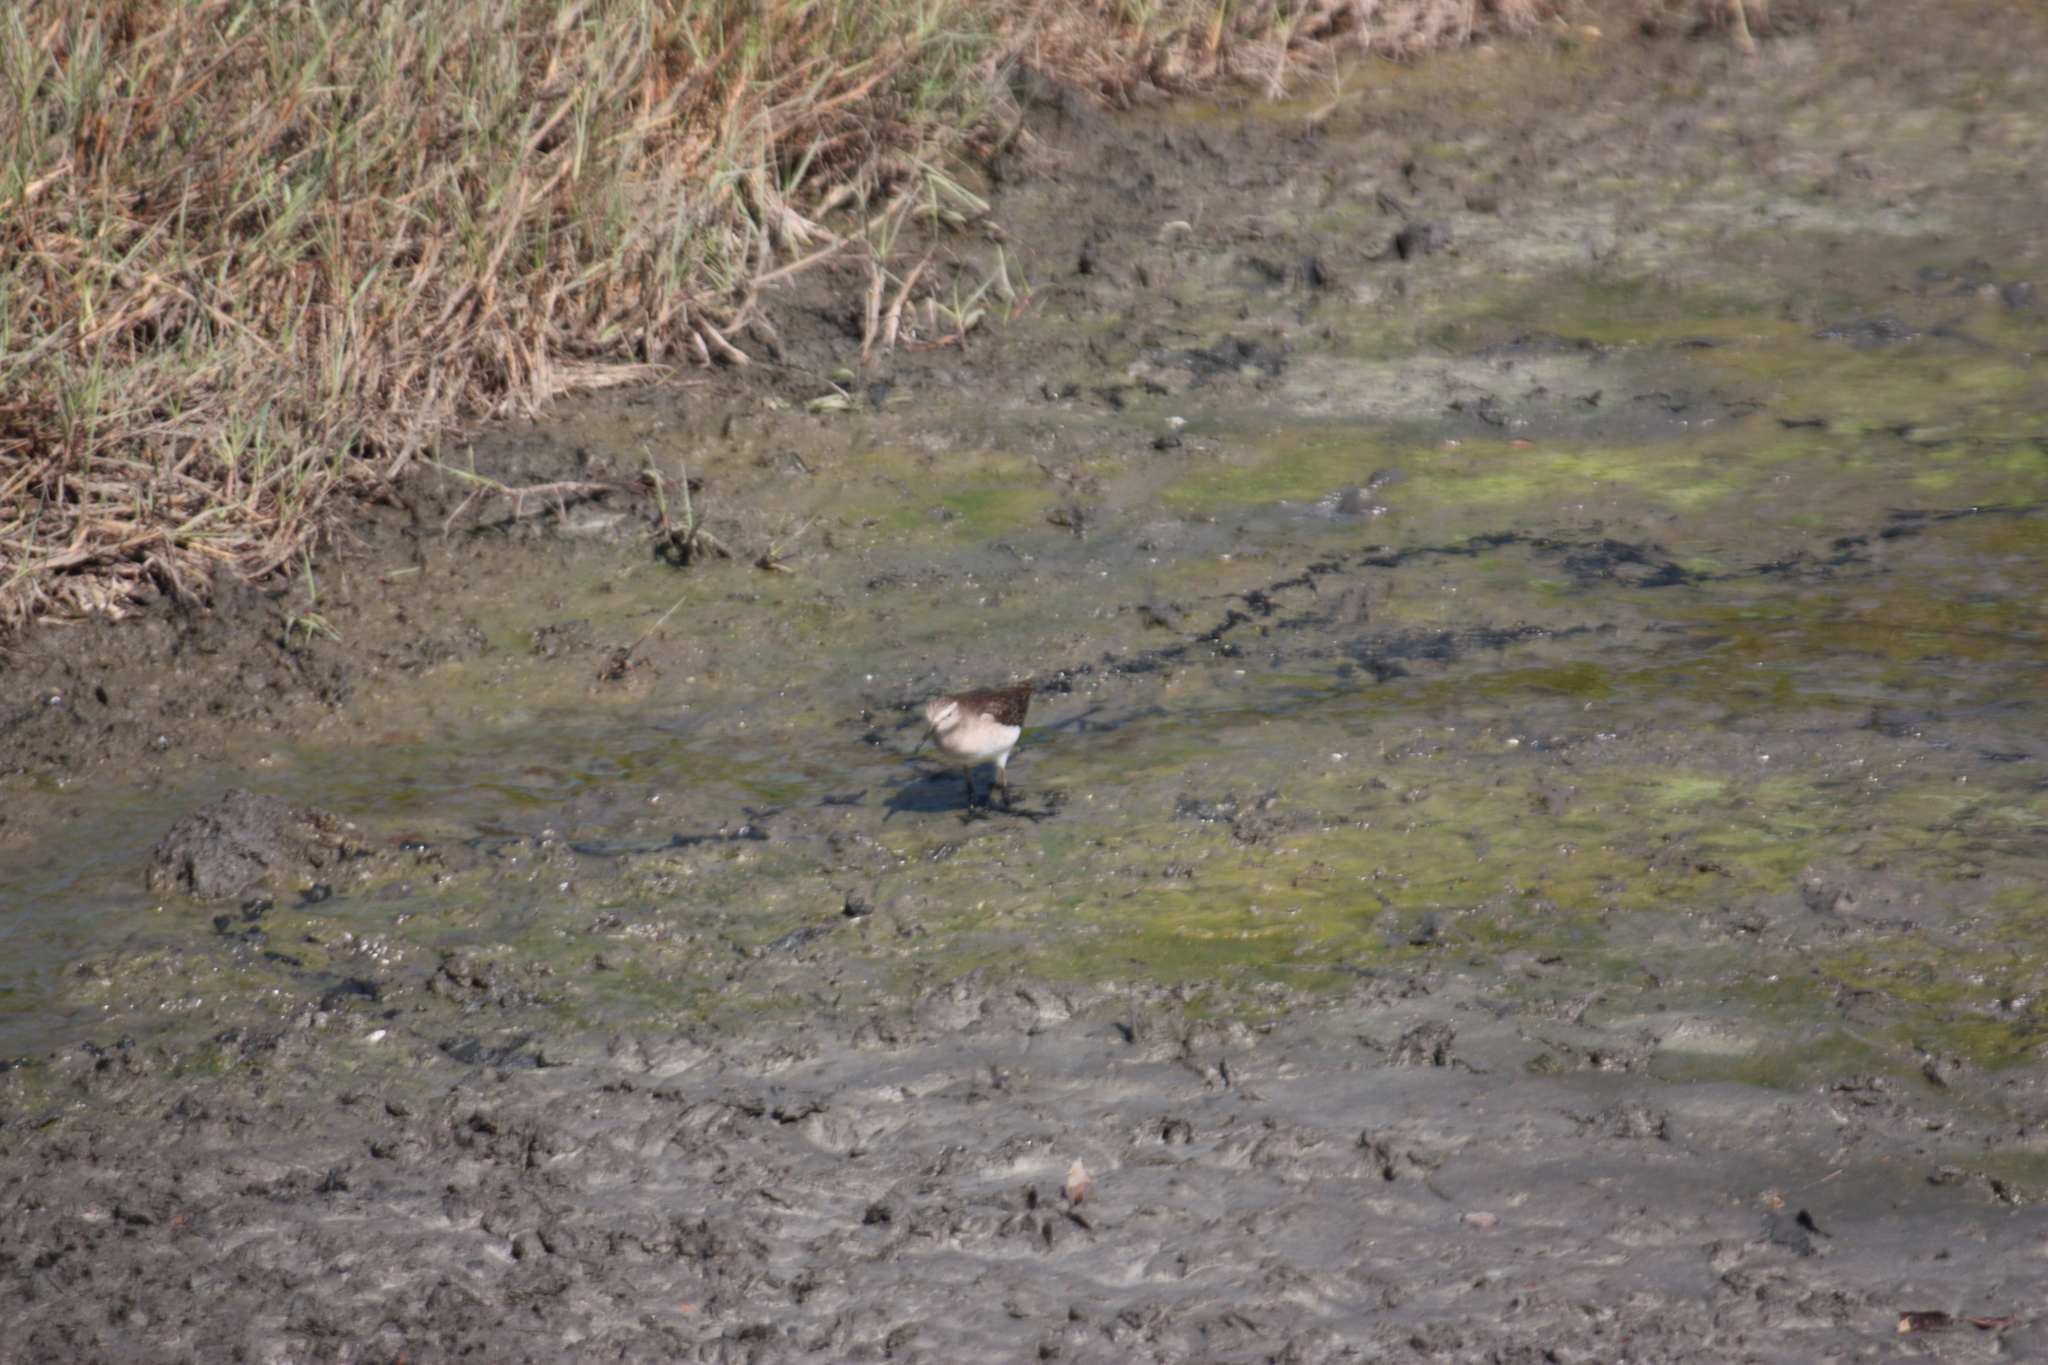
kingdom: Animalia
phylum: Chordata
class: Aves
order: Charadriiformes
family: Scolopacidae
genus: Tringa
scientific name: Tringa glareola
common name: Wood sandpiper
